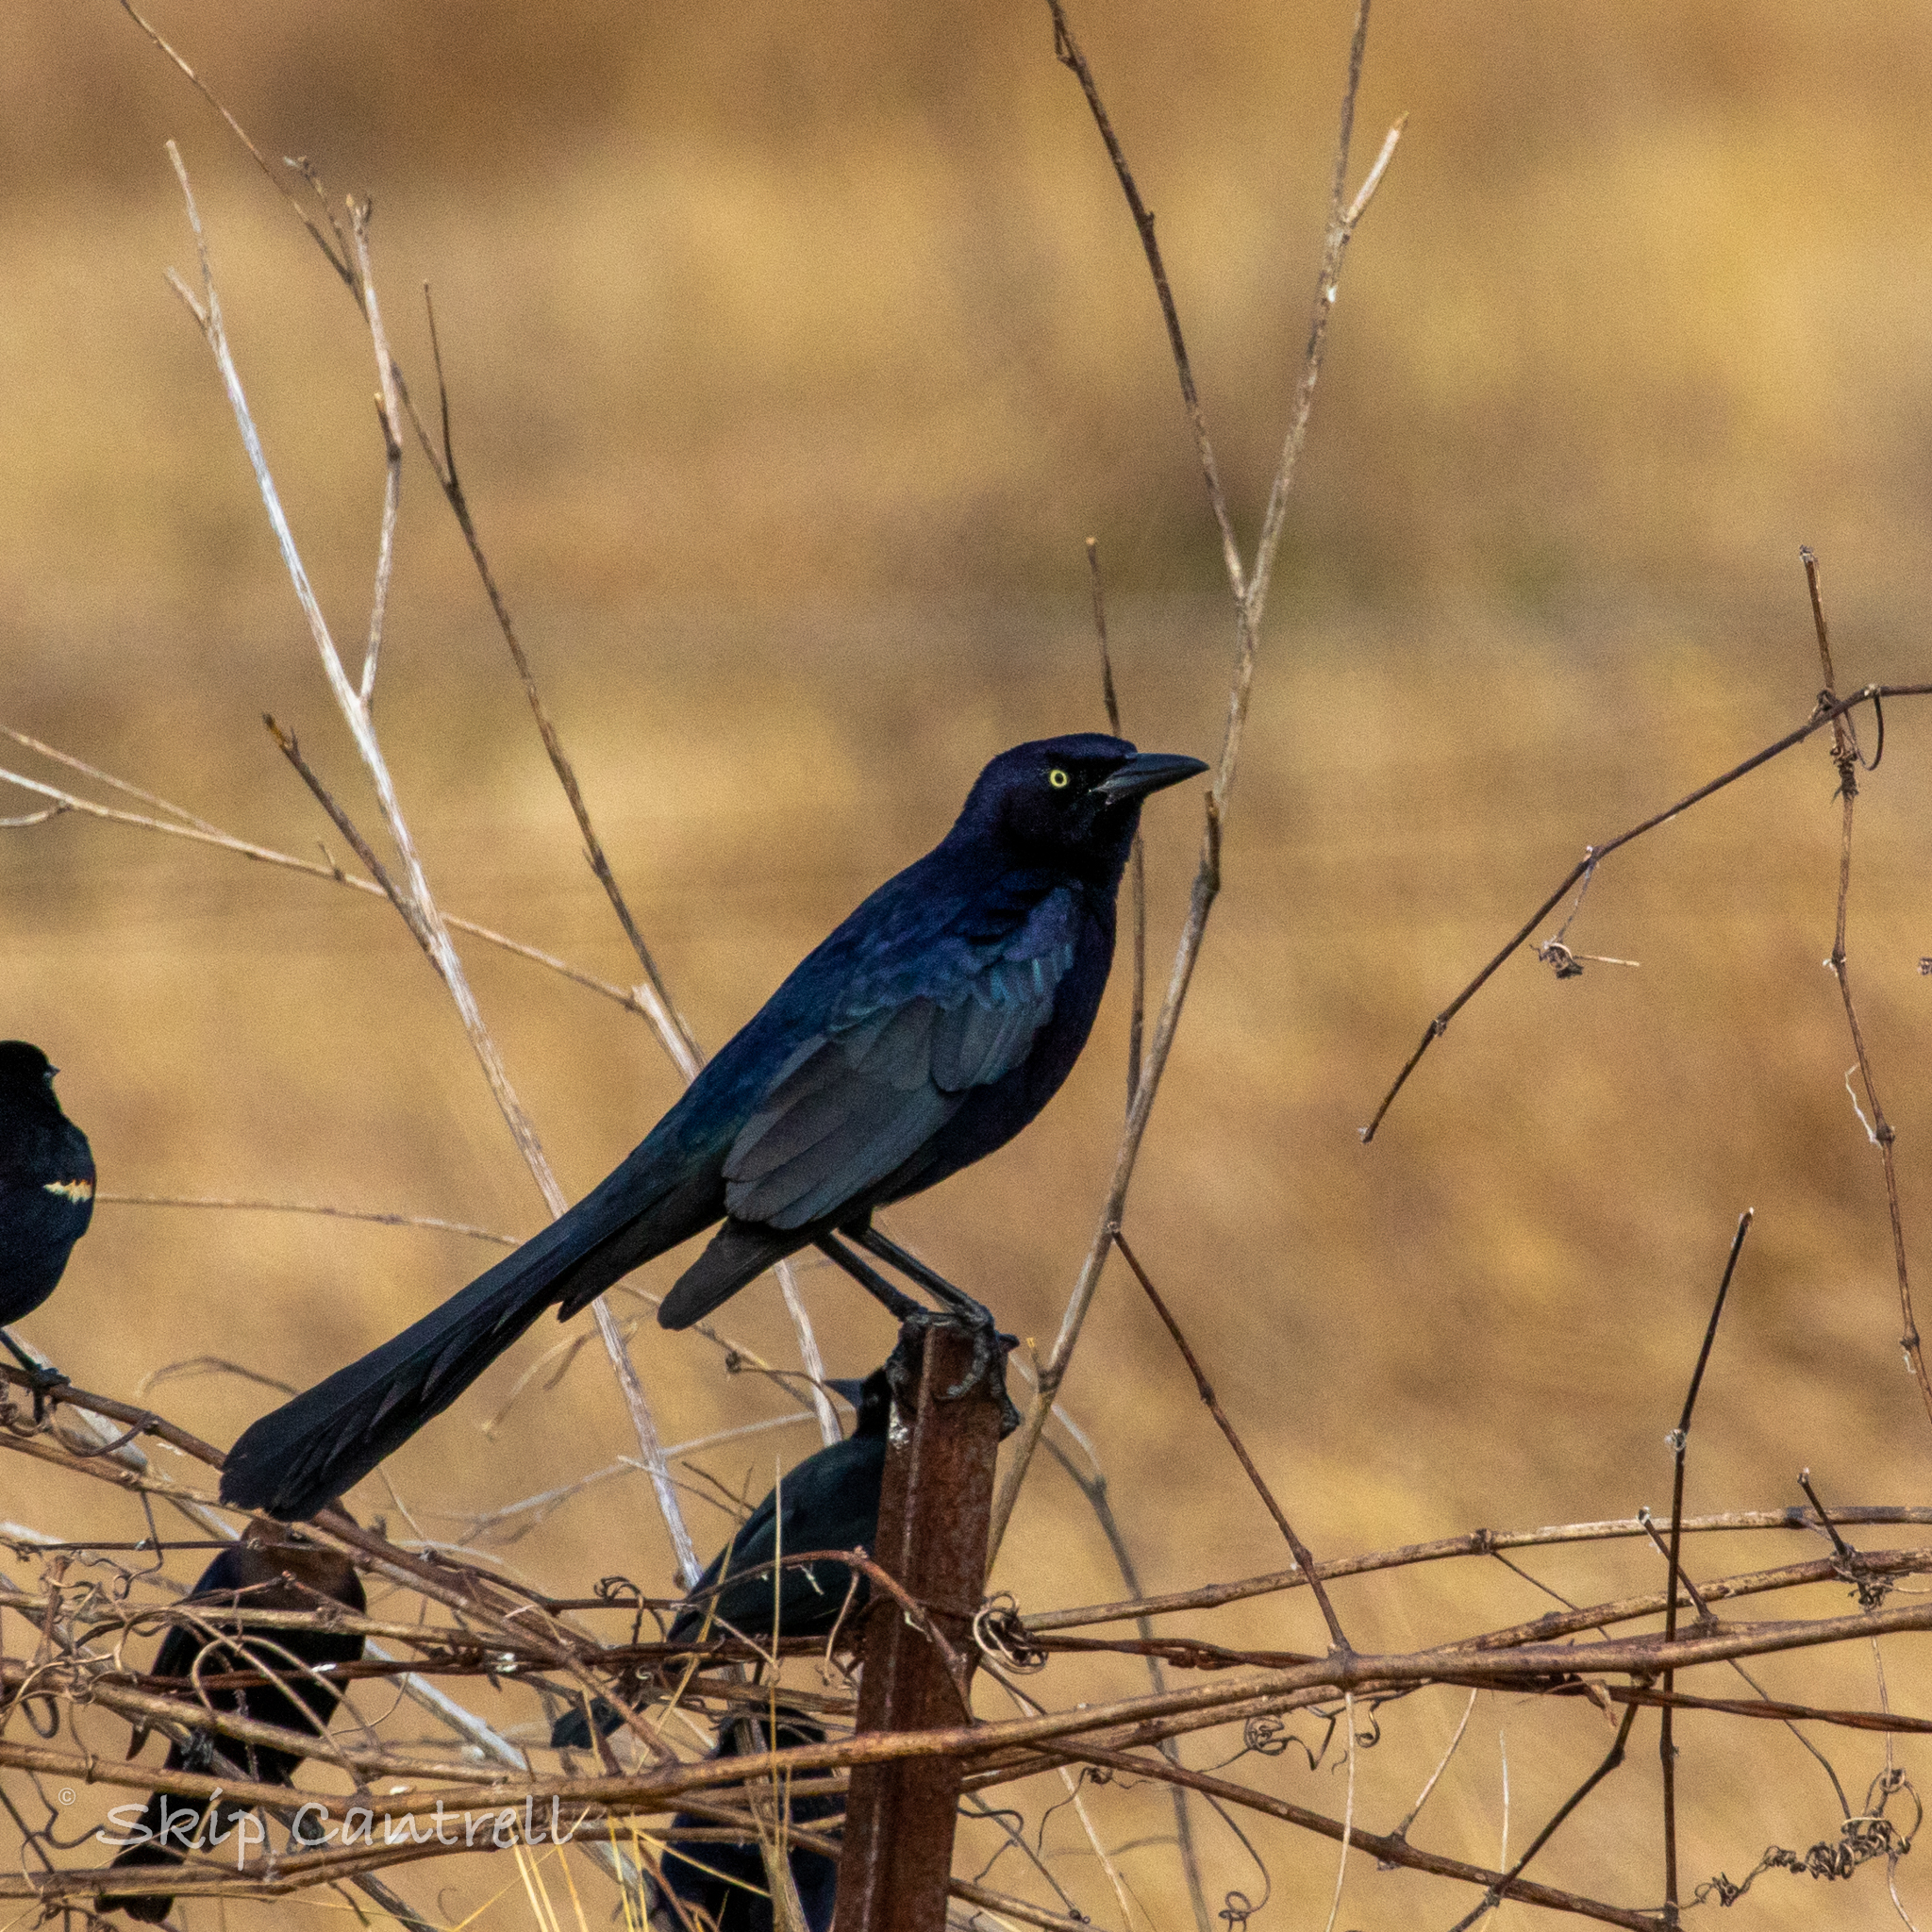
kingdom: Animalia
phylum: Chordata
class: Aves
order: Passeriformes
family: Icteridae
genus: Quiscalus
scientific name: Quiscalus mexicanus
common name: Great-tailed grackle
